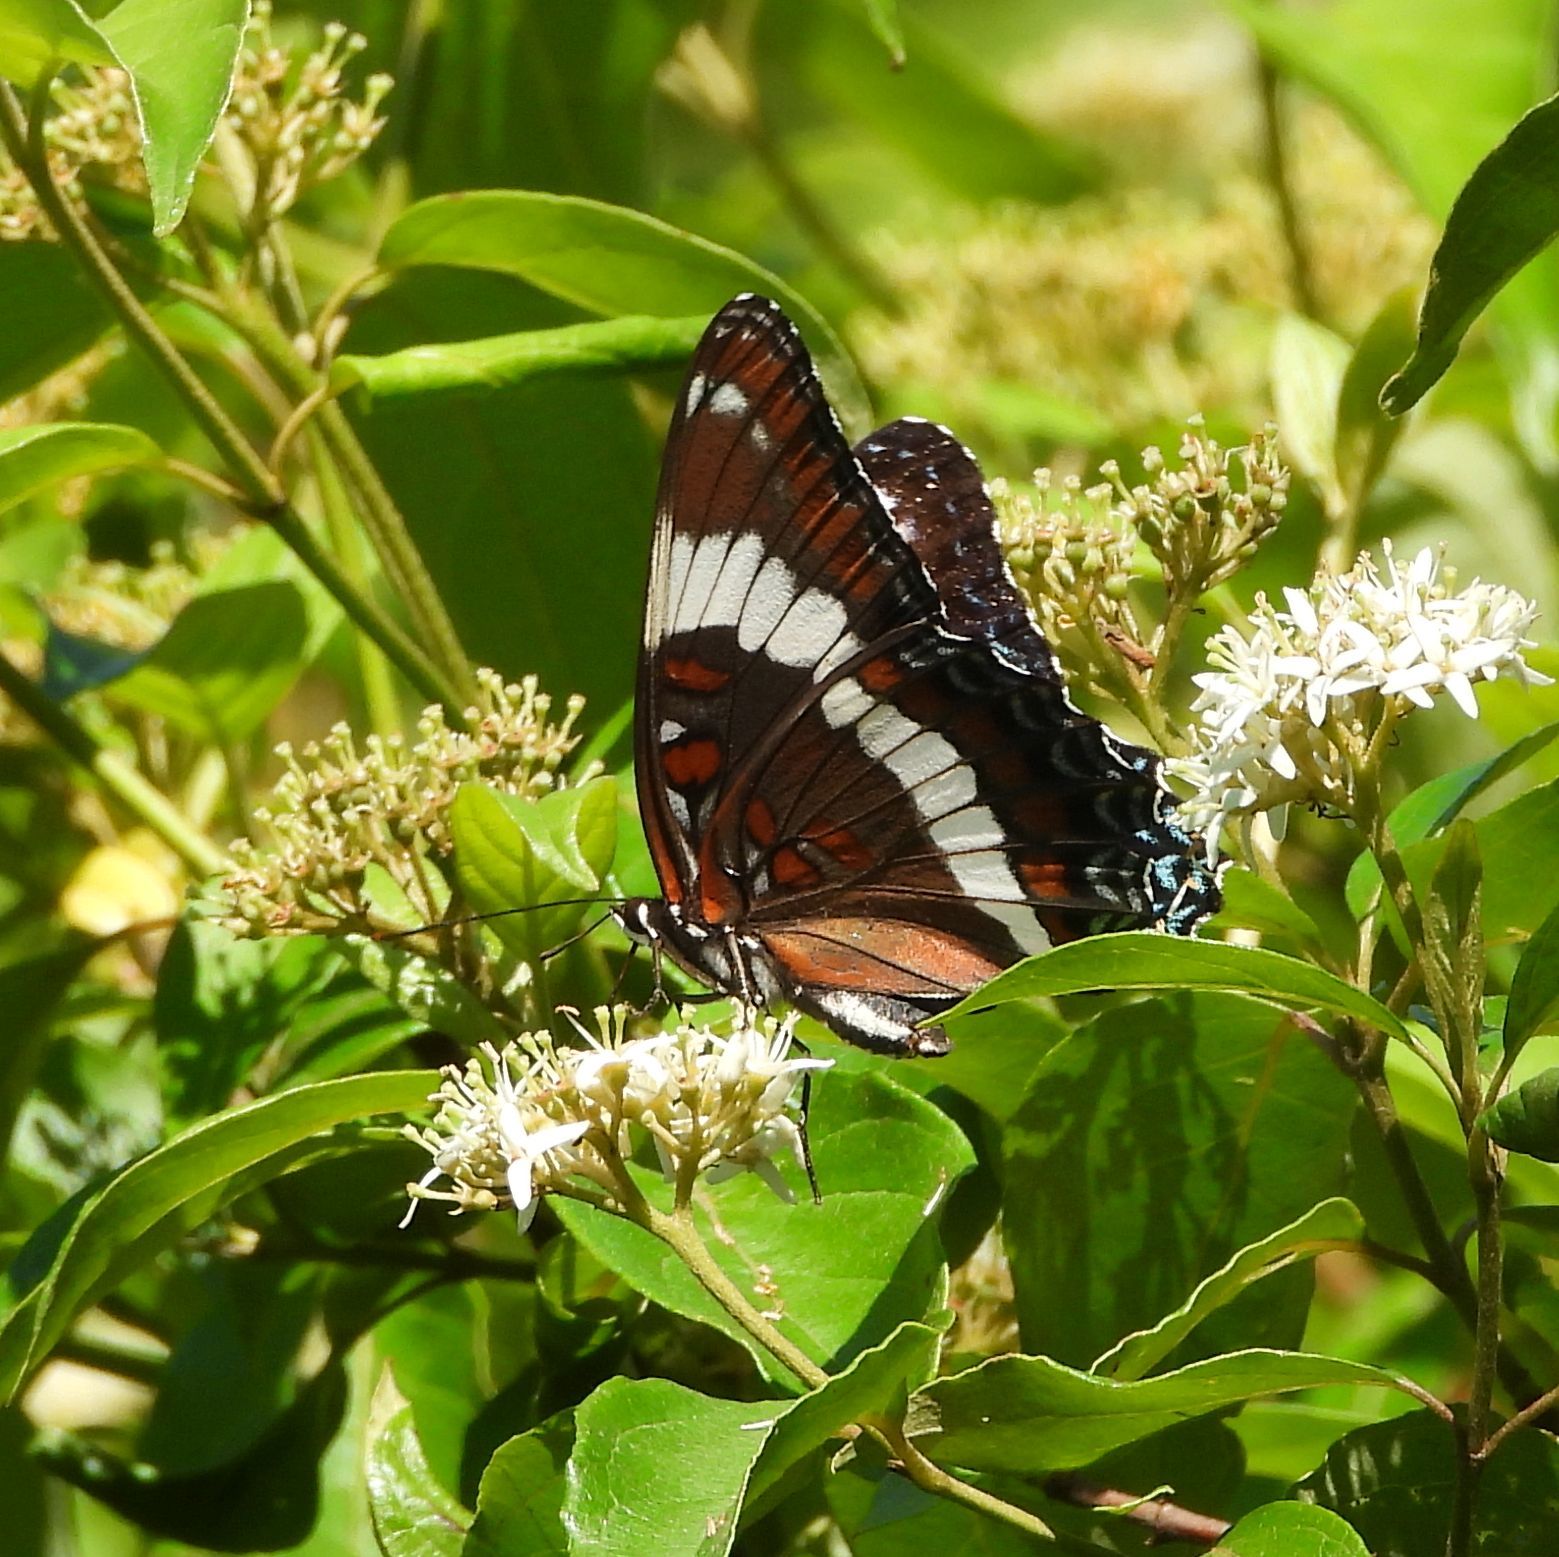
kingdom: Animalia
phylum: Arthropoda
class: Insecta
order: Lepidoptera
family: Nymphalidae
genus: Limenitis
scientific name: Limenitis arthemis
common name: Red-spotted admiral
